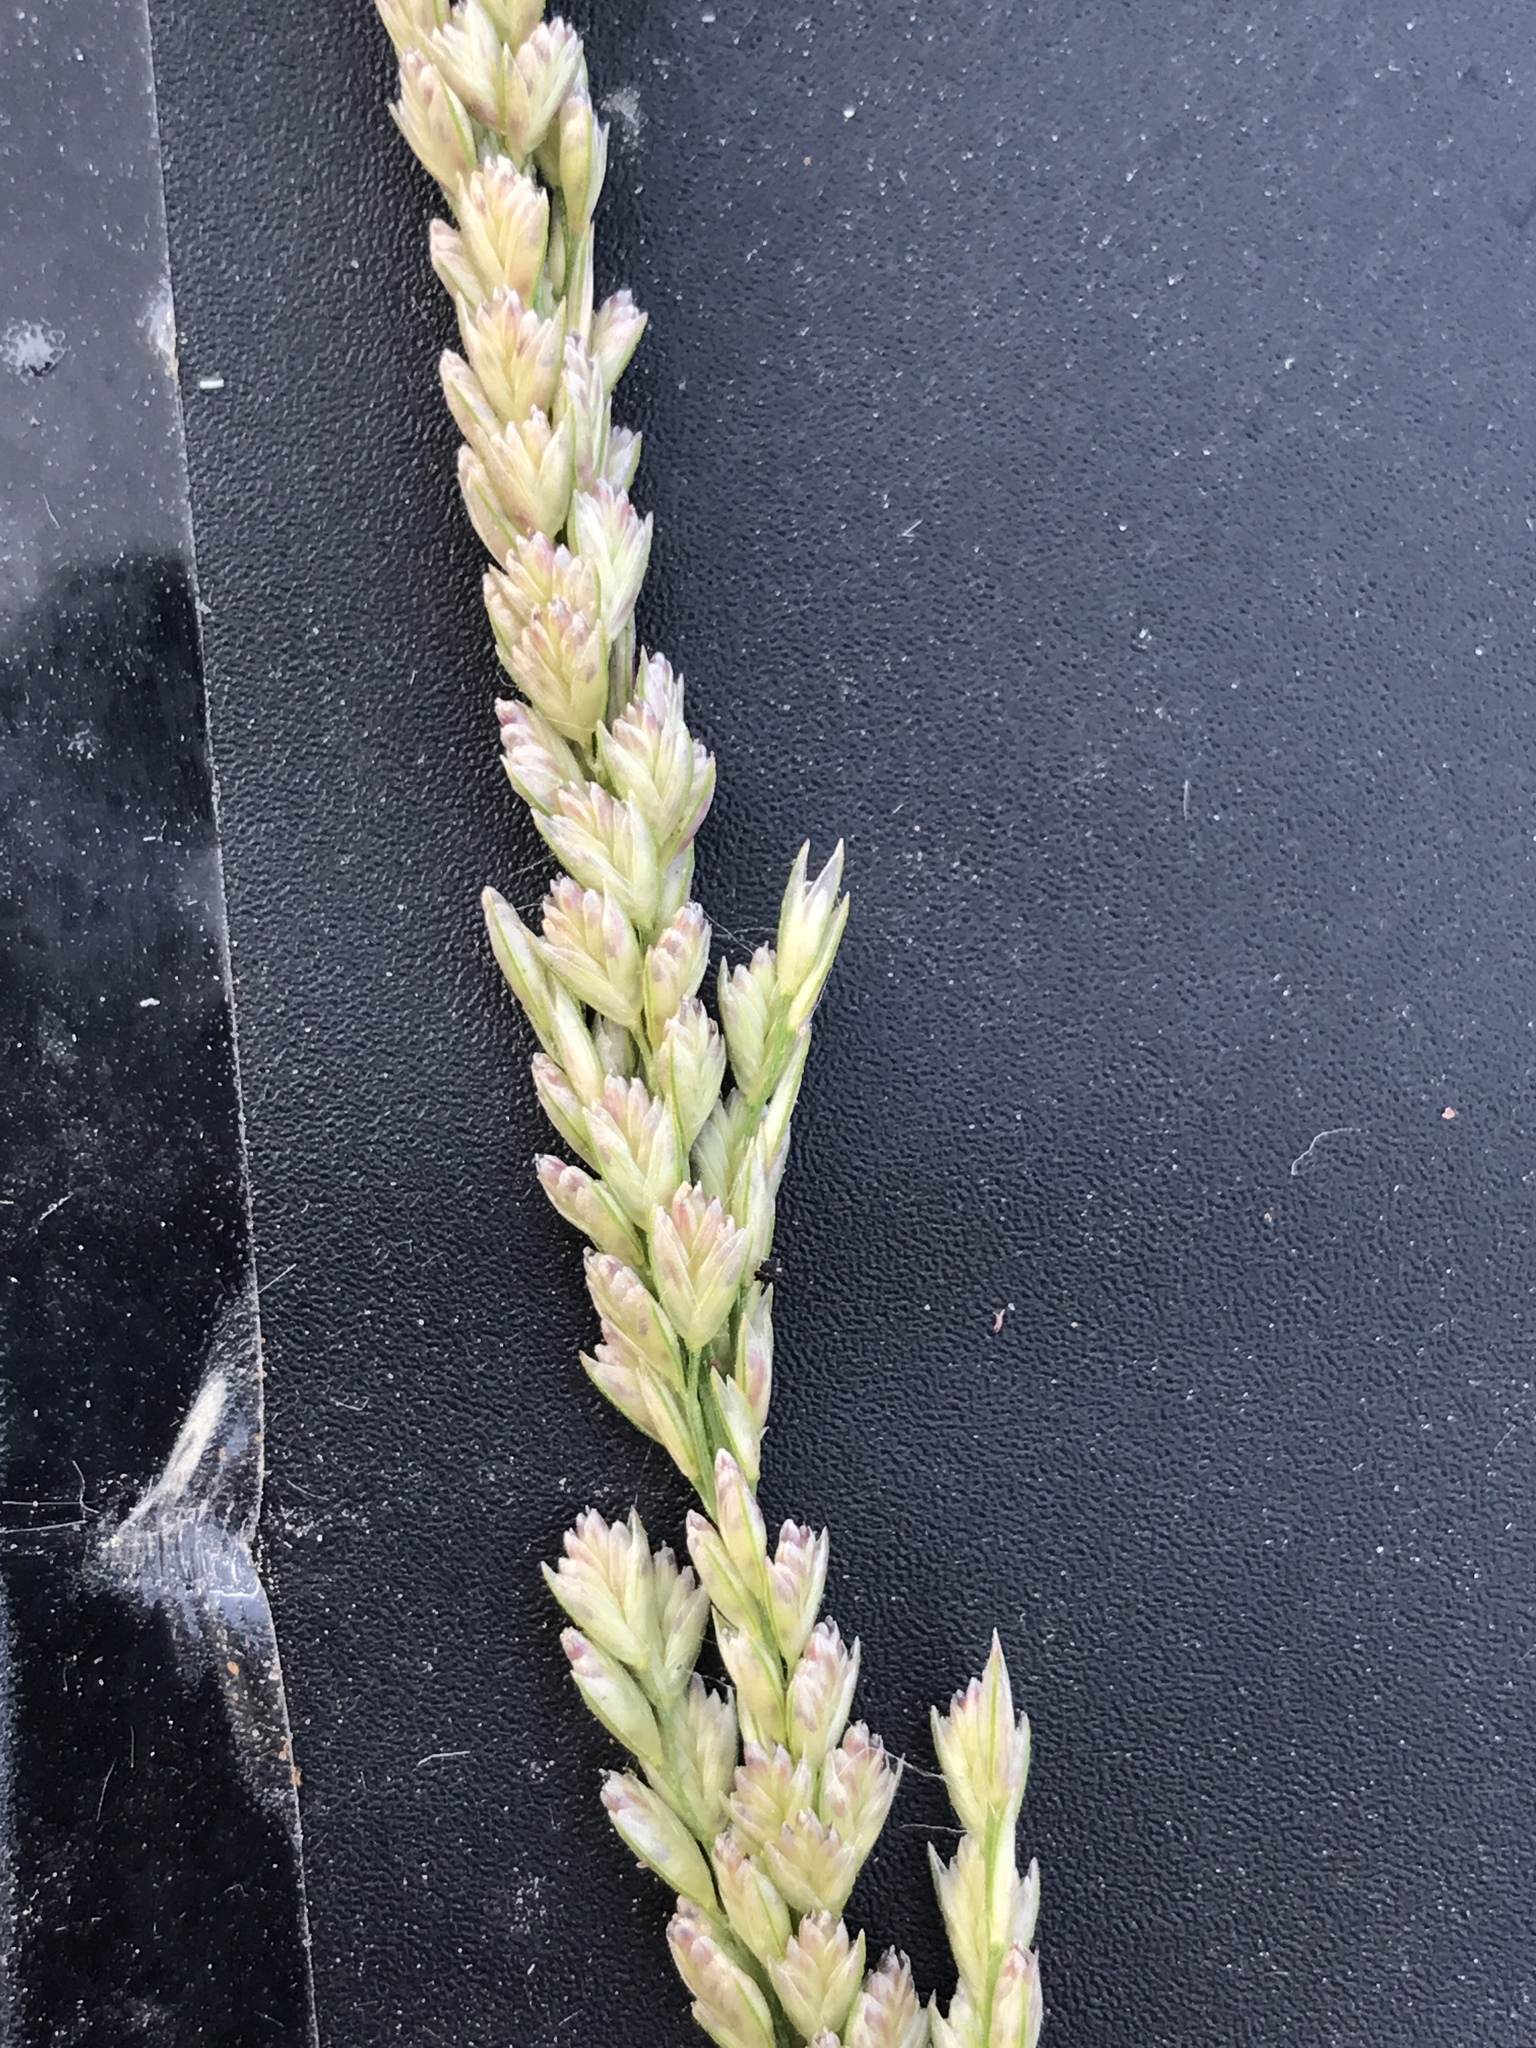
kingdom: Plantae
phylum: Tracheophyta
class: Liliopsida
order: Poales
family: Poaceae
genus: Tridens
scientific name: Tridens albescens
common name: White tridens
